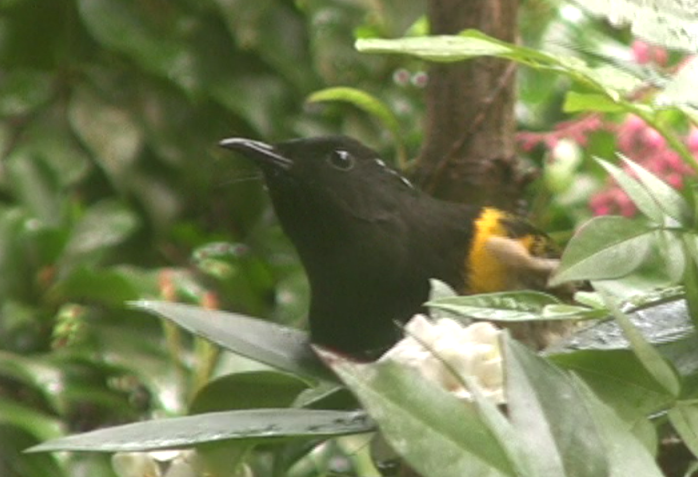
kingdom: Animalia
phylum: Chordata
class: Aves
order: Passeriformes
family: Notiomystidae
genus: Notiomystis
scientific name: Notiomystis cincta
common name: Stitchbird
